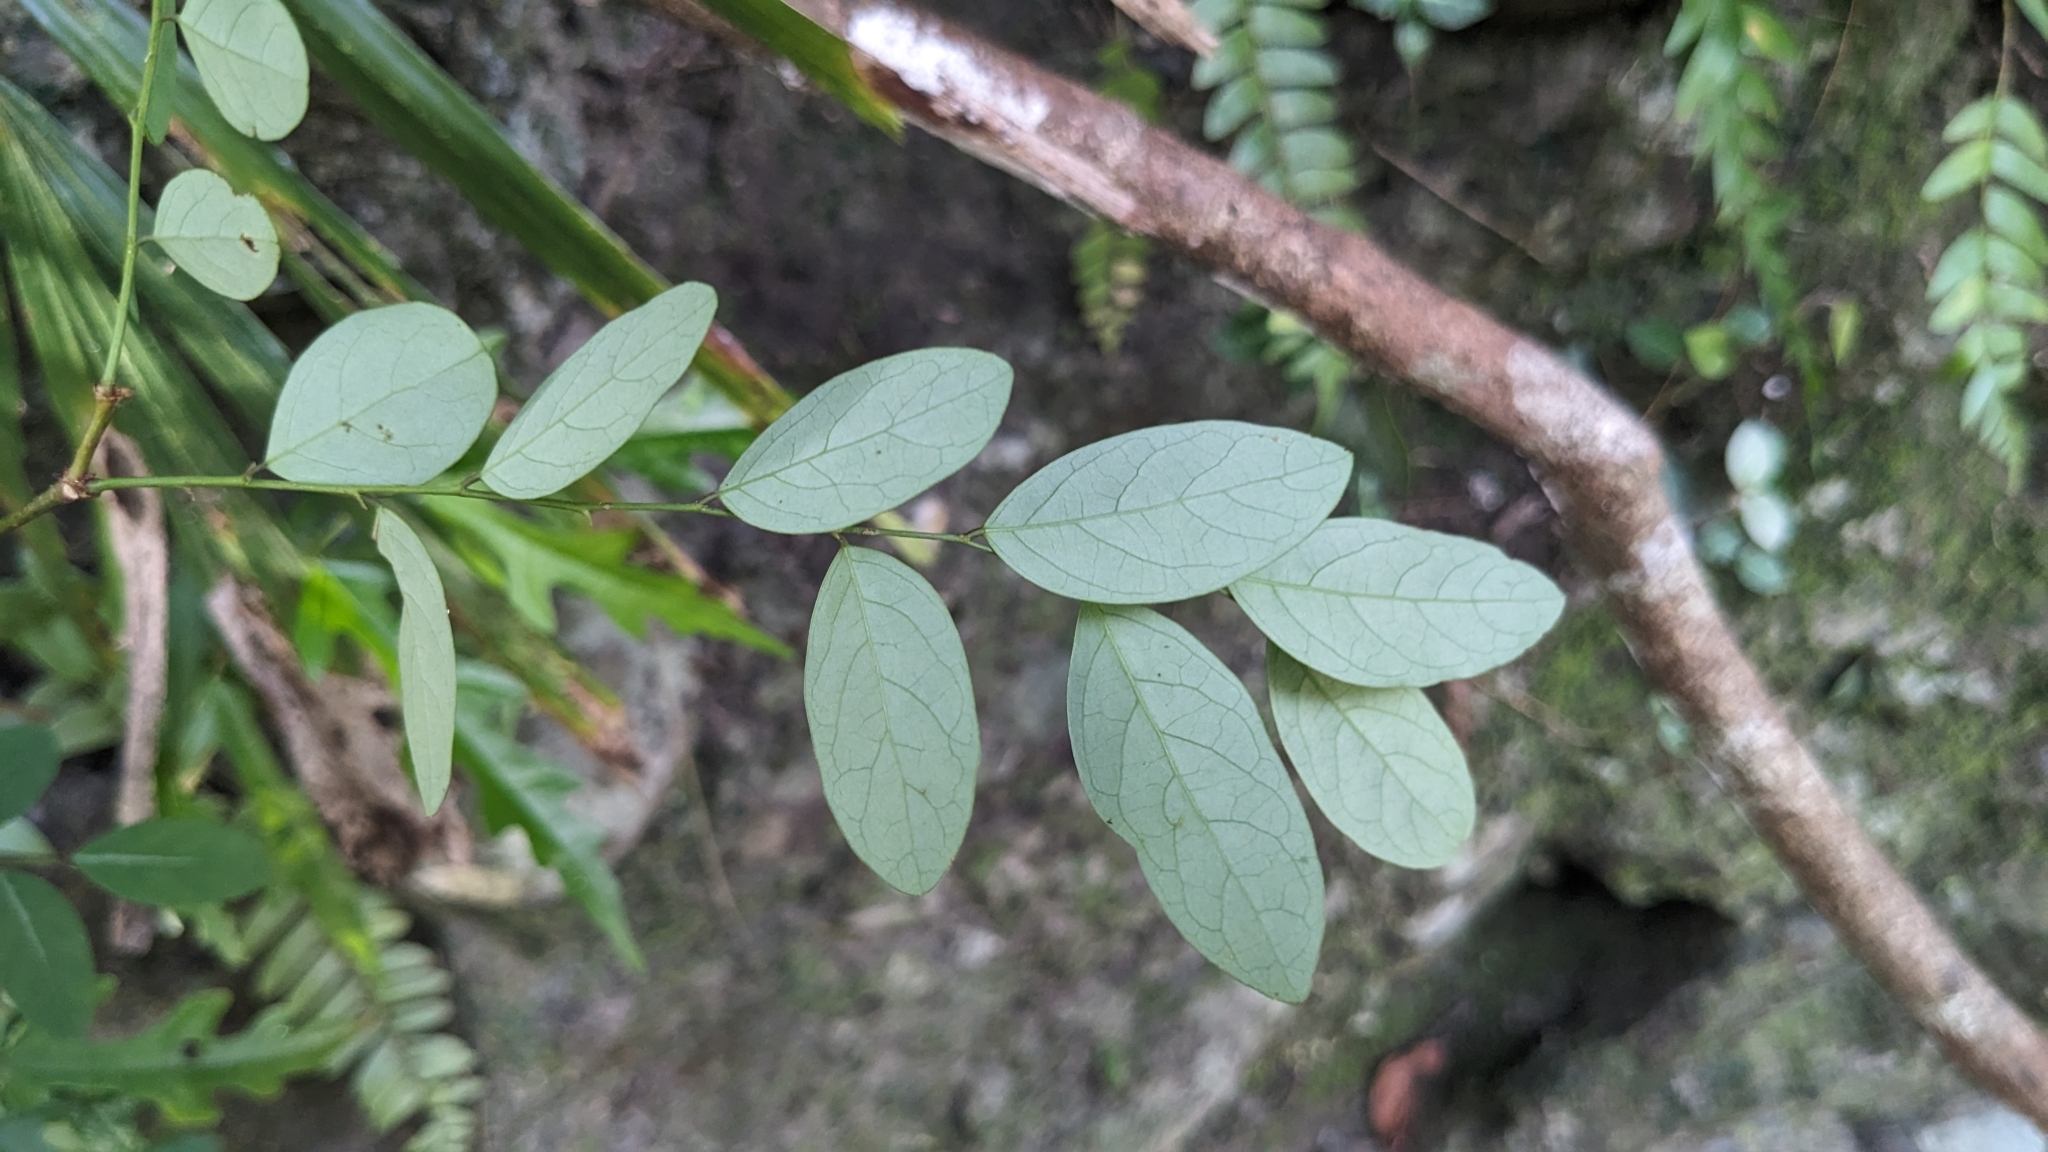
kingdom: Plantae
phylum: Tracheophyta
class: Magnoliopsida
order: Malpighiales
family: Phyllanthaceae
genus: Breynia
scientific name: Breynia vitis-idaea
